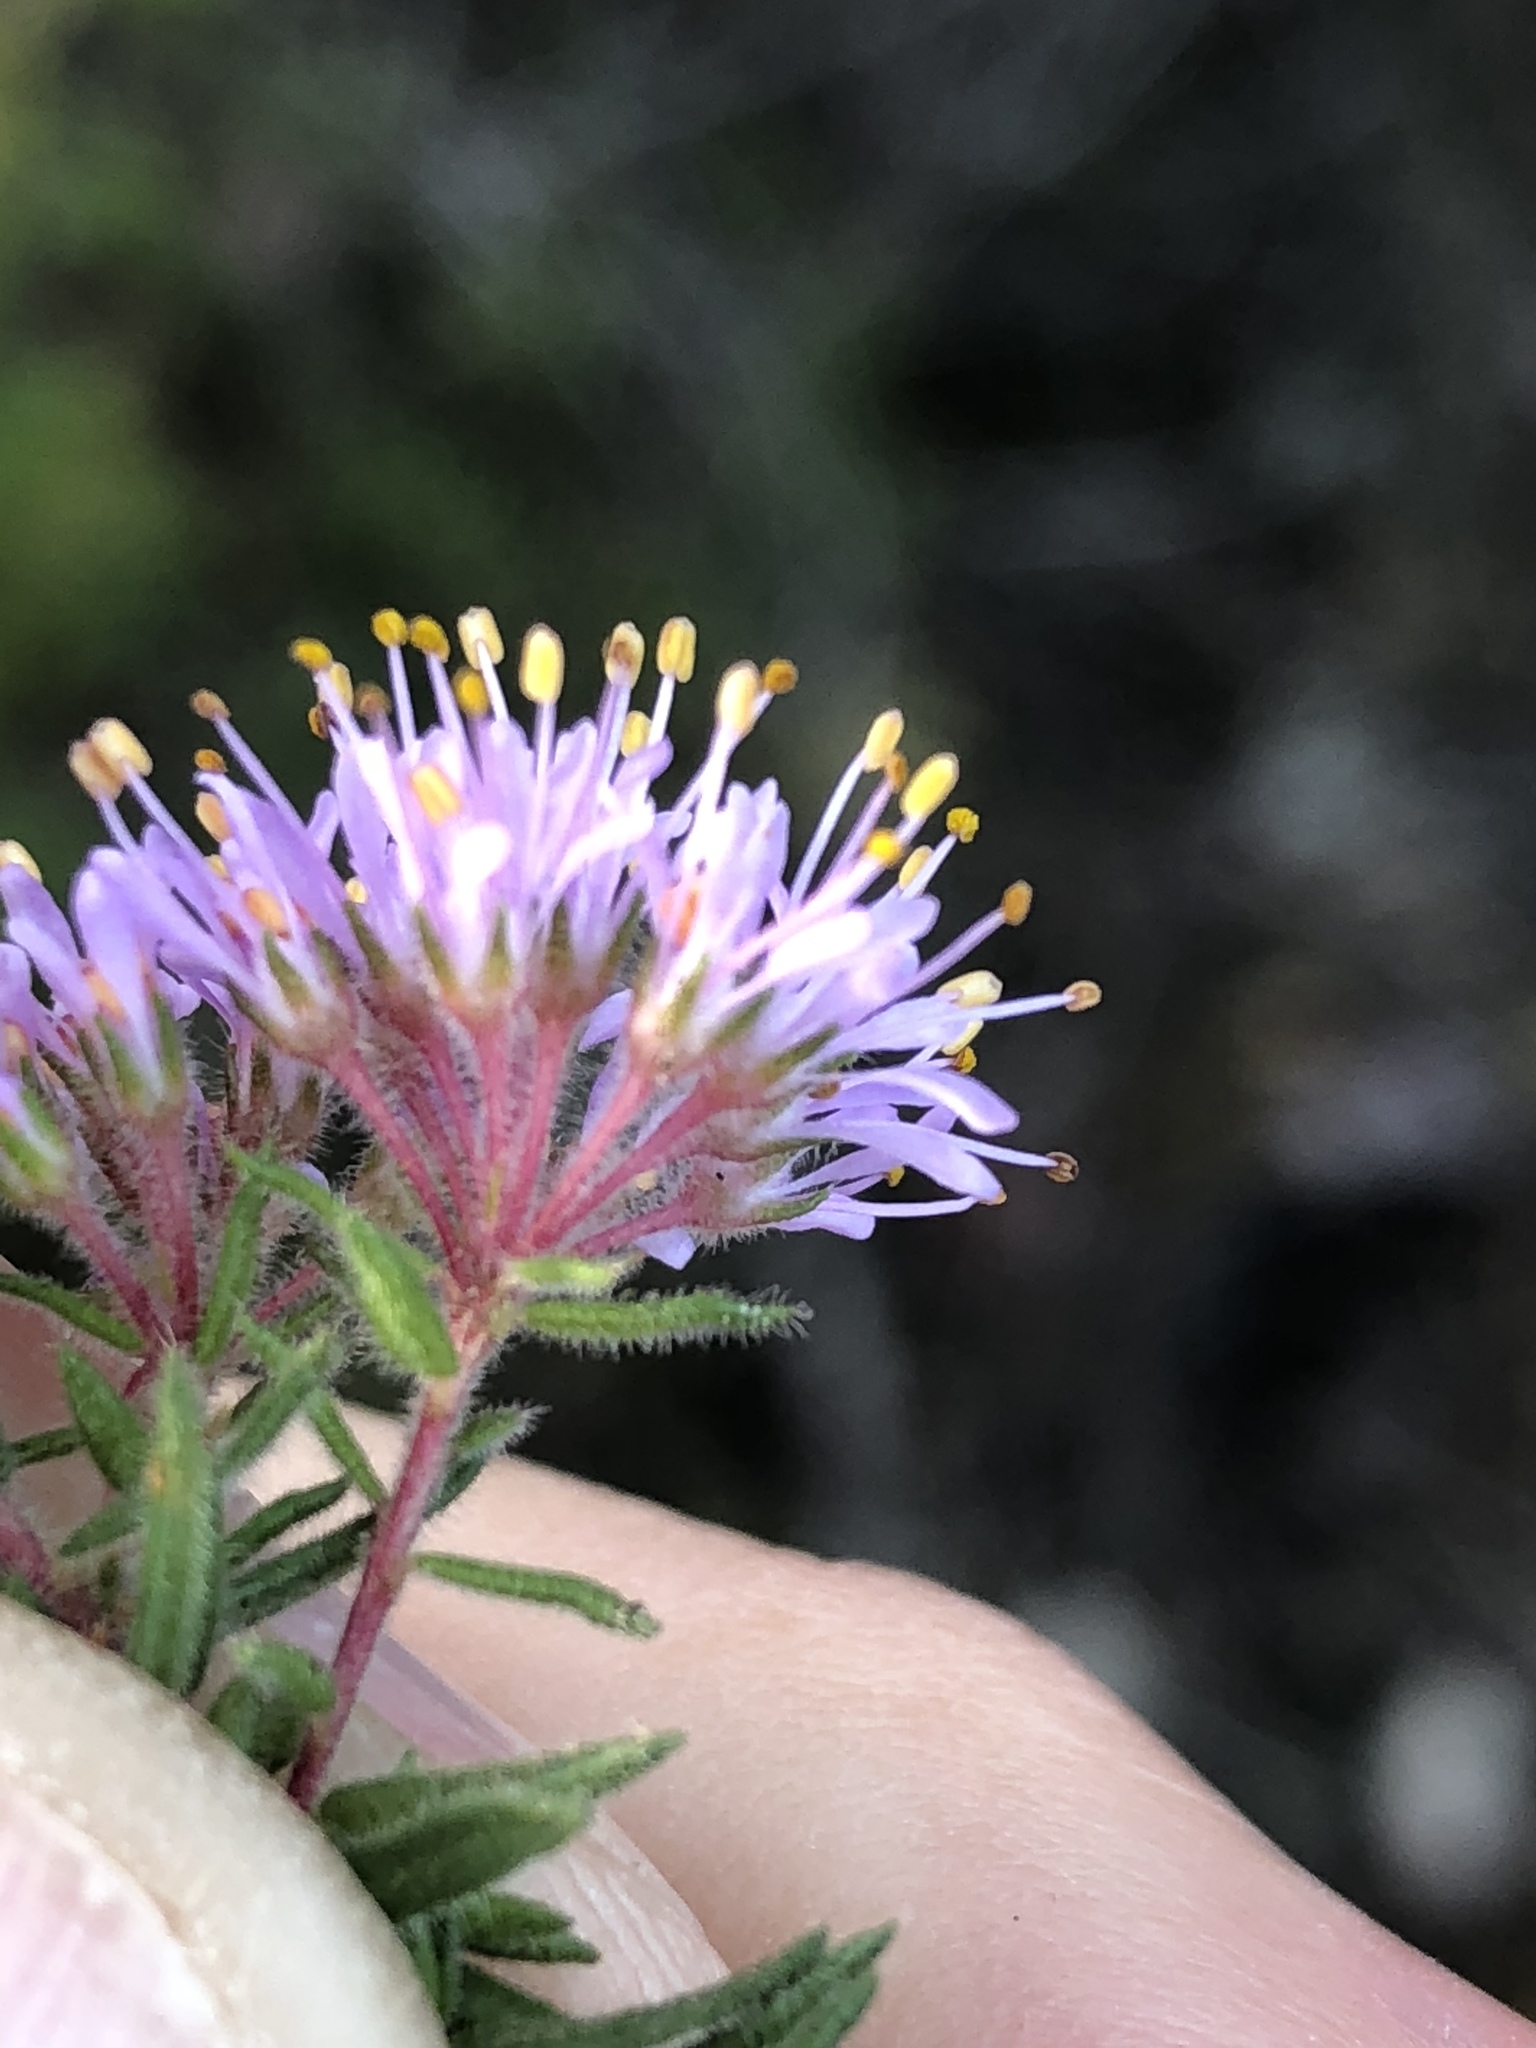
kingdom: Plantae
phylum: Tracheophyta
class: Magnoliopsida
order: Sapindales
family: Rutaceae
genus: Agathosma
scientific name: Agathosma serpyllacea
